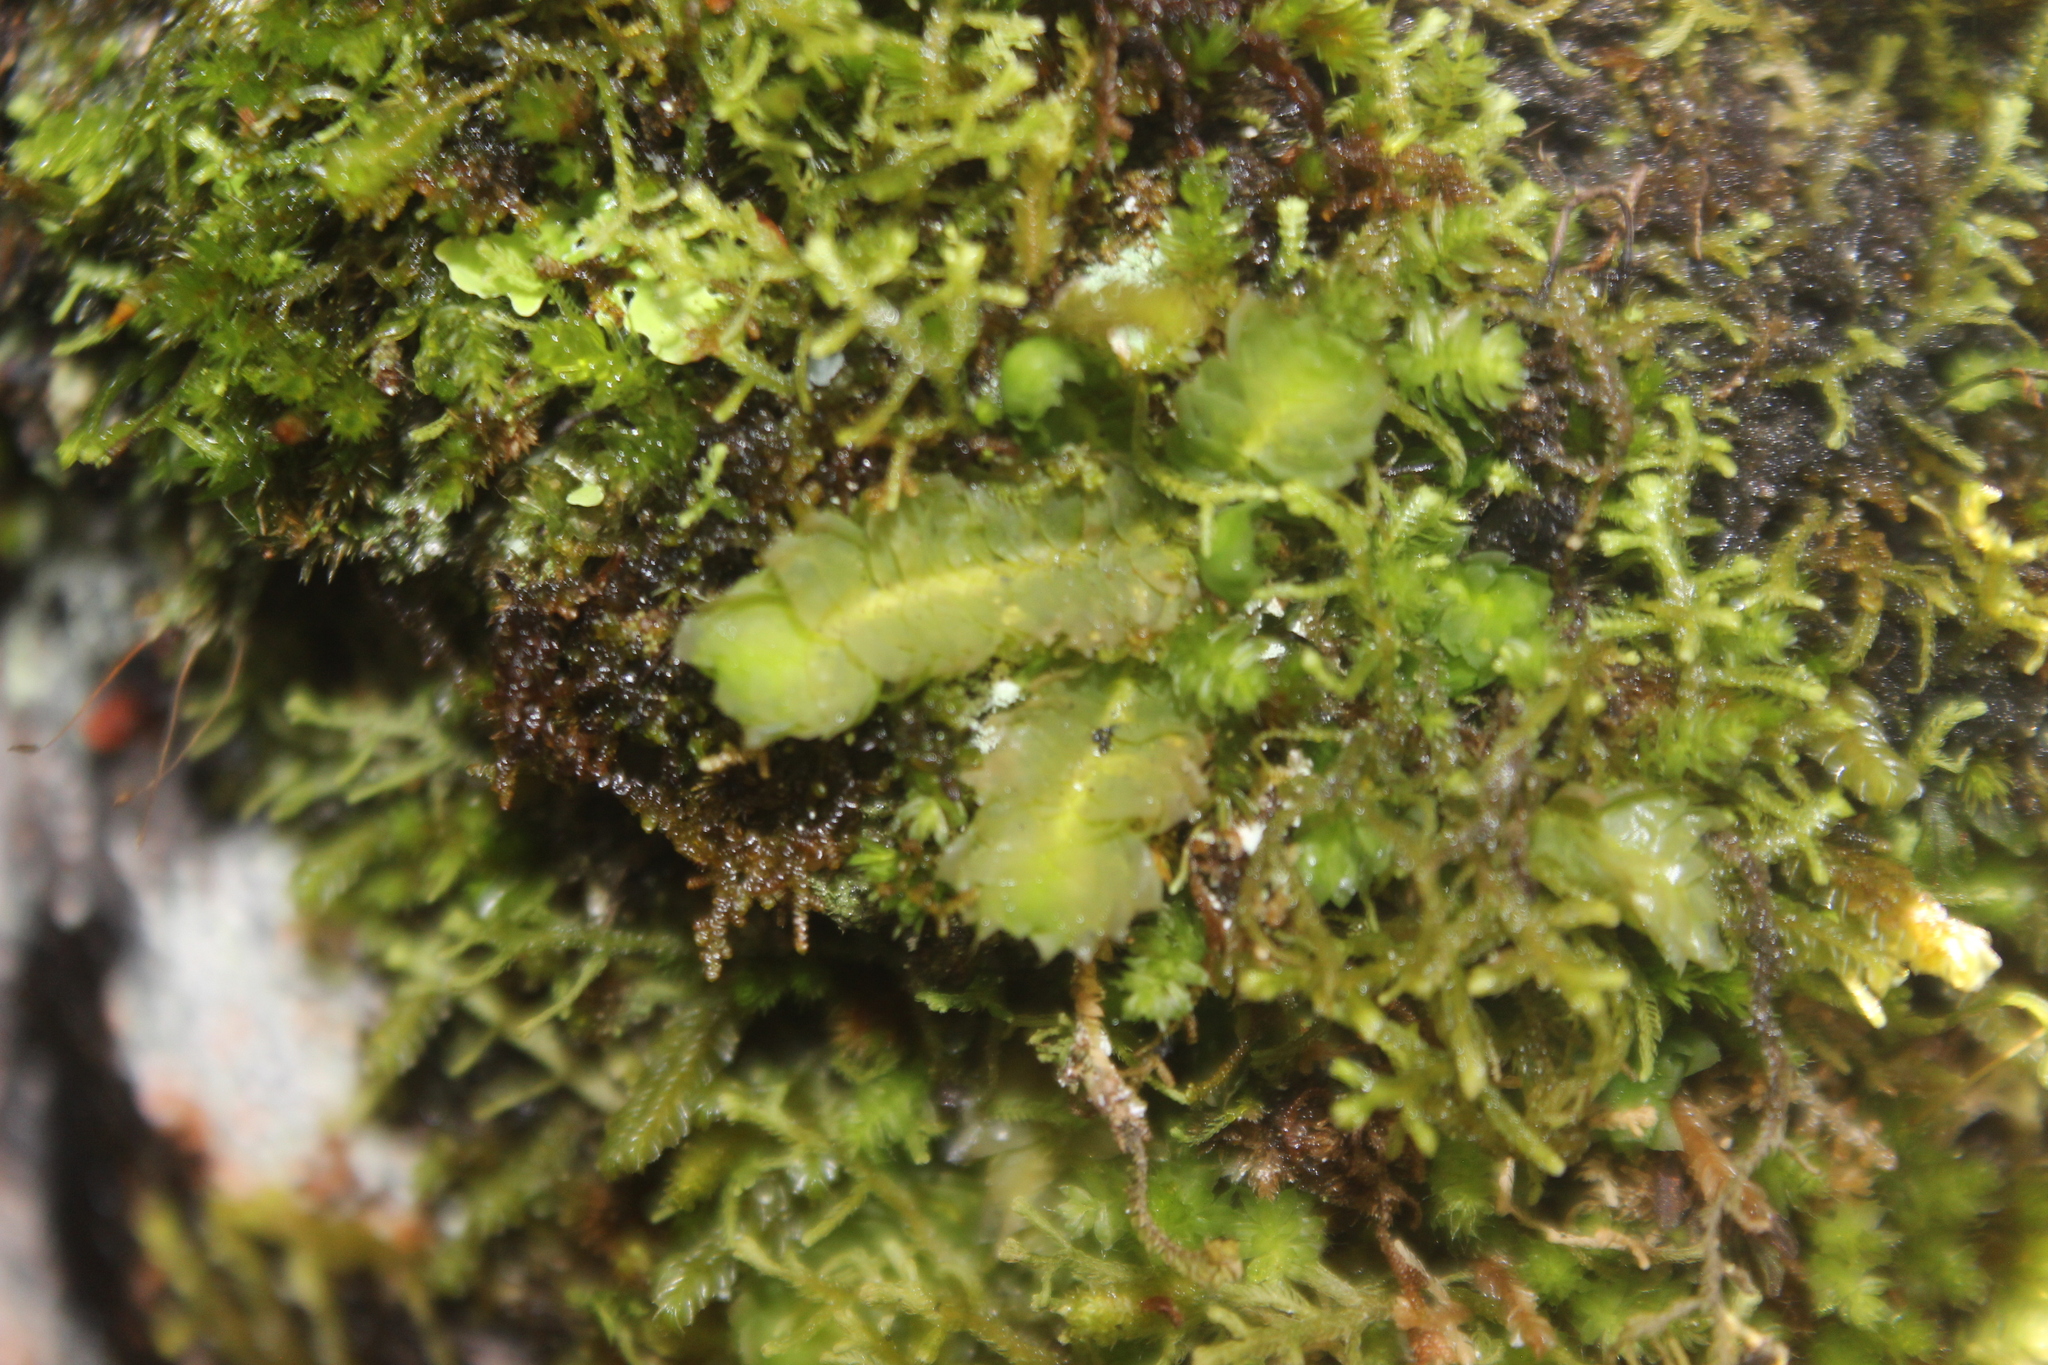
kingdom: Plantae
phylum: Marchantiophyta
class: Jungermanniopsida
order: Jungermanniales
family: Schistochilaceae
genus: Schistochila
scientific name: Schistochila tuloides
